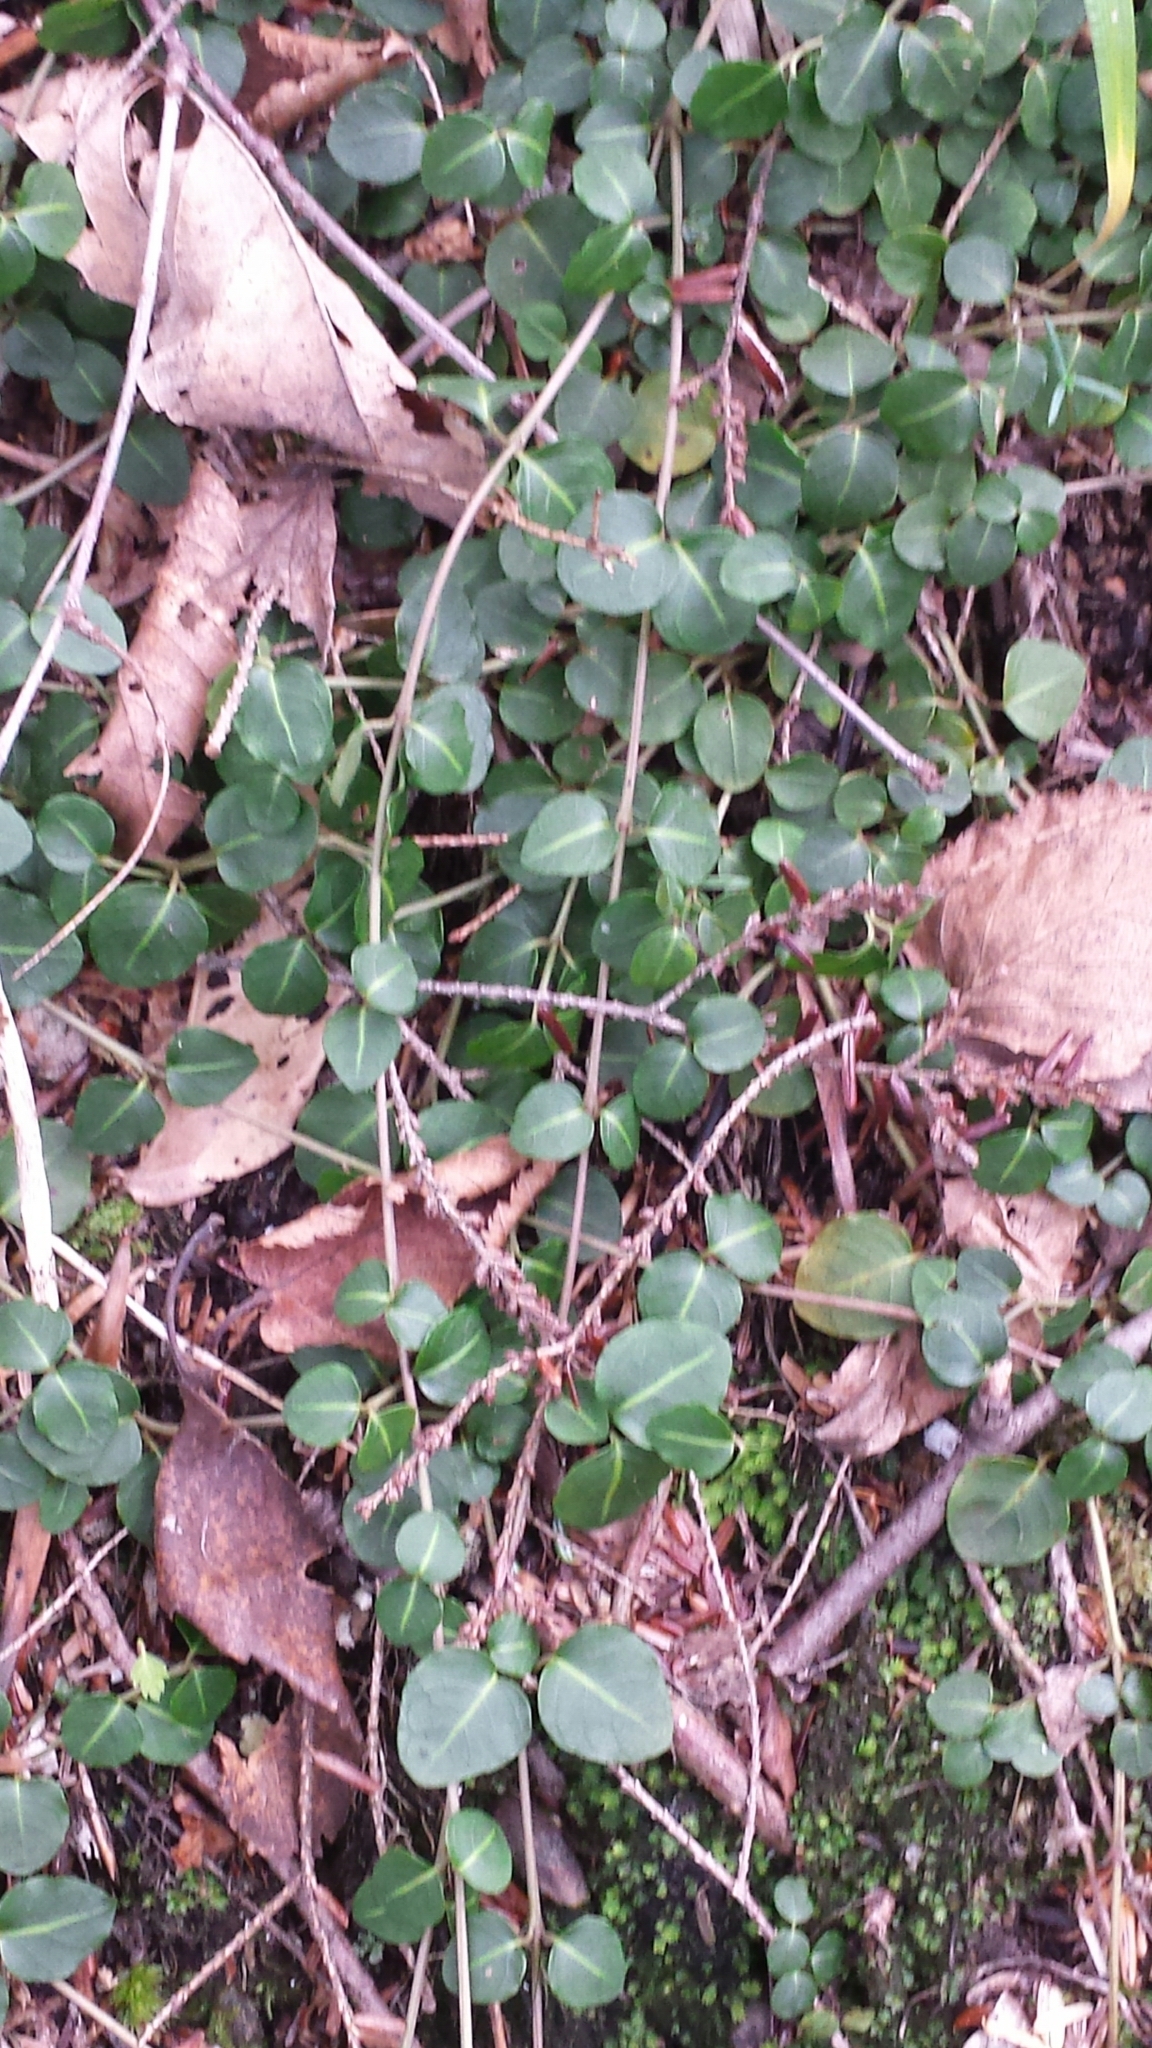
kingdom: Plantae
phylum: Tracheophyta
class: Magnoliopsida
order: Gentianales
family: Rubiaceae
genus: Mitchella
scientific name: Mitchella repens
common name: Partridge-berry
